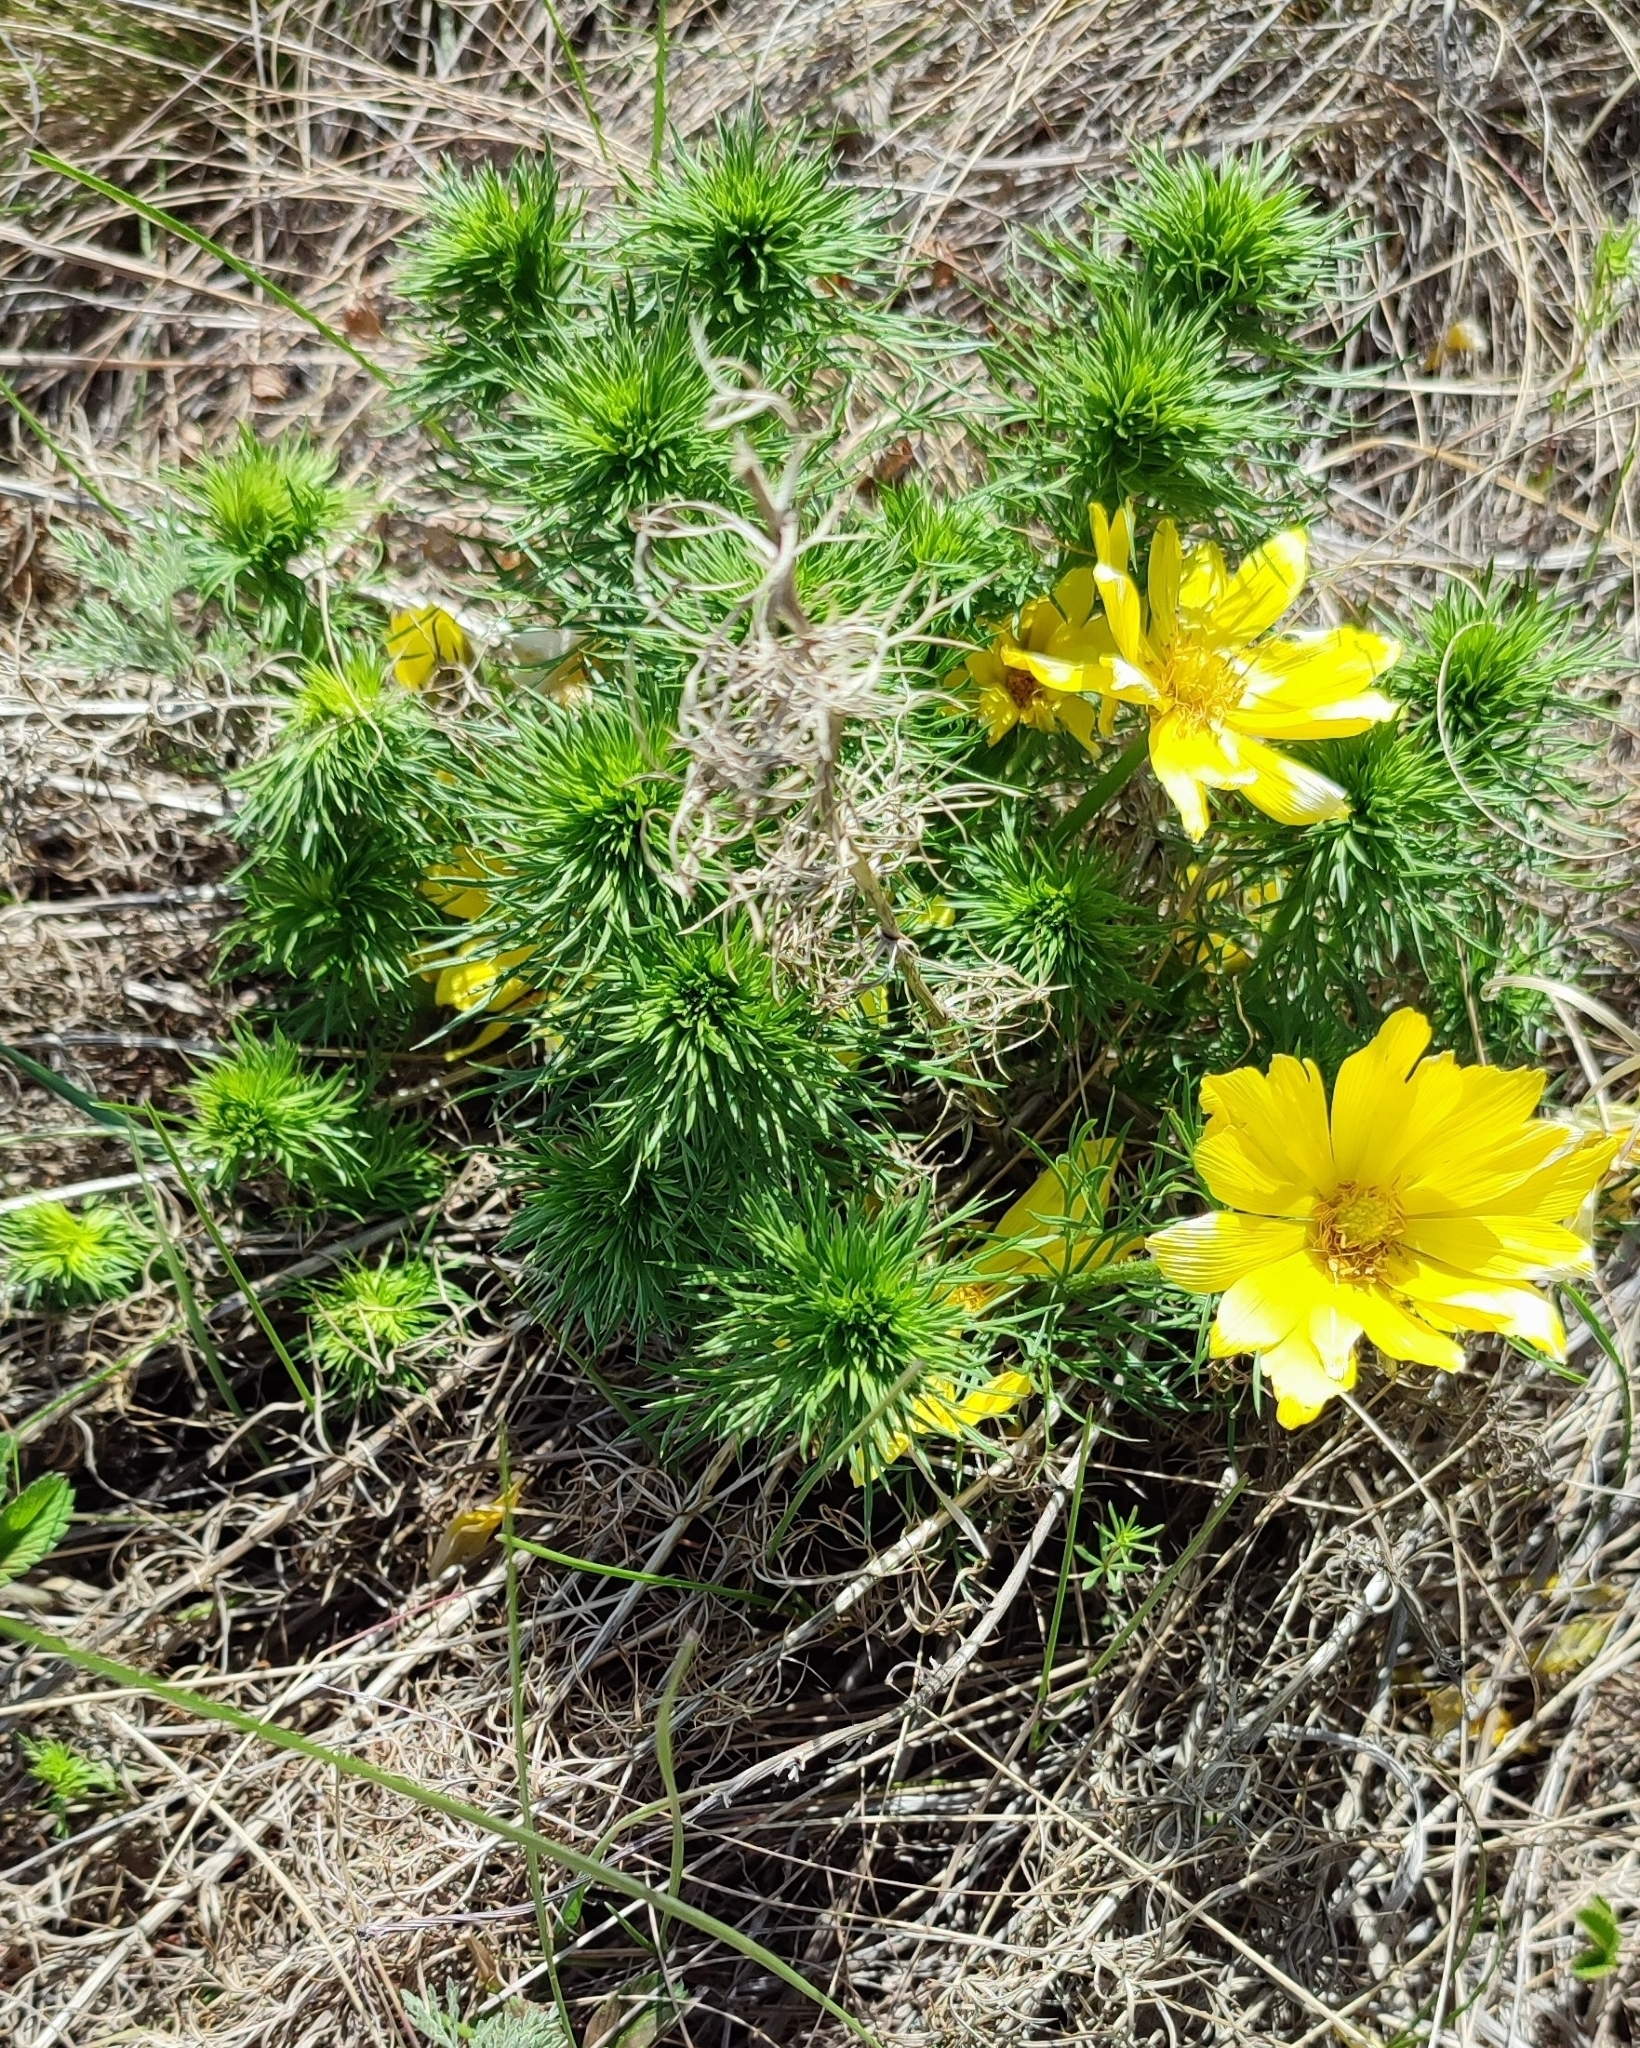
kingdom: Plantae
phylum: Tracheophyta
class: Magnoliopsida
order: Ranunculales
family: Ranunculaceae
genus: Adonis
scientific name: Adonis vernalis
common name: Yellow pheasants-eye
